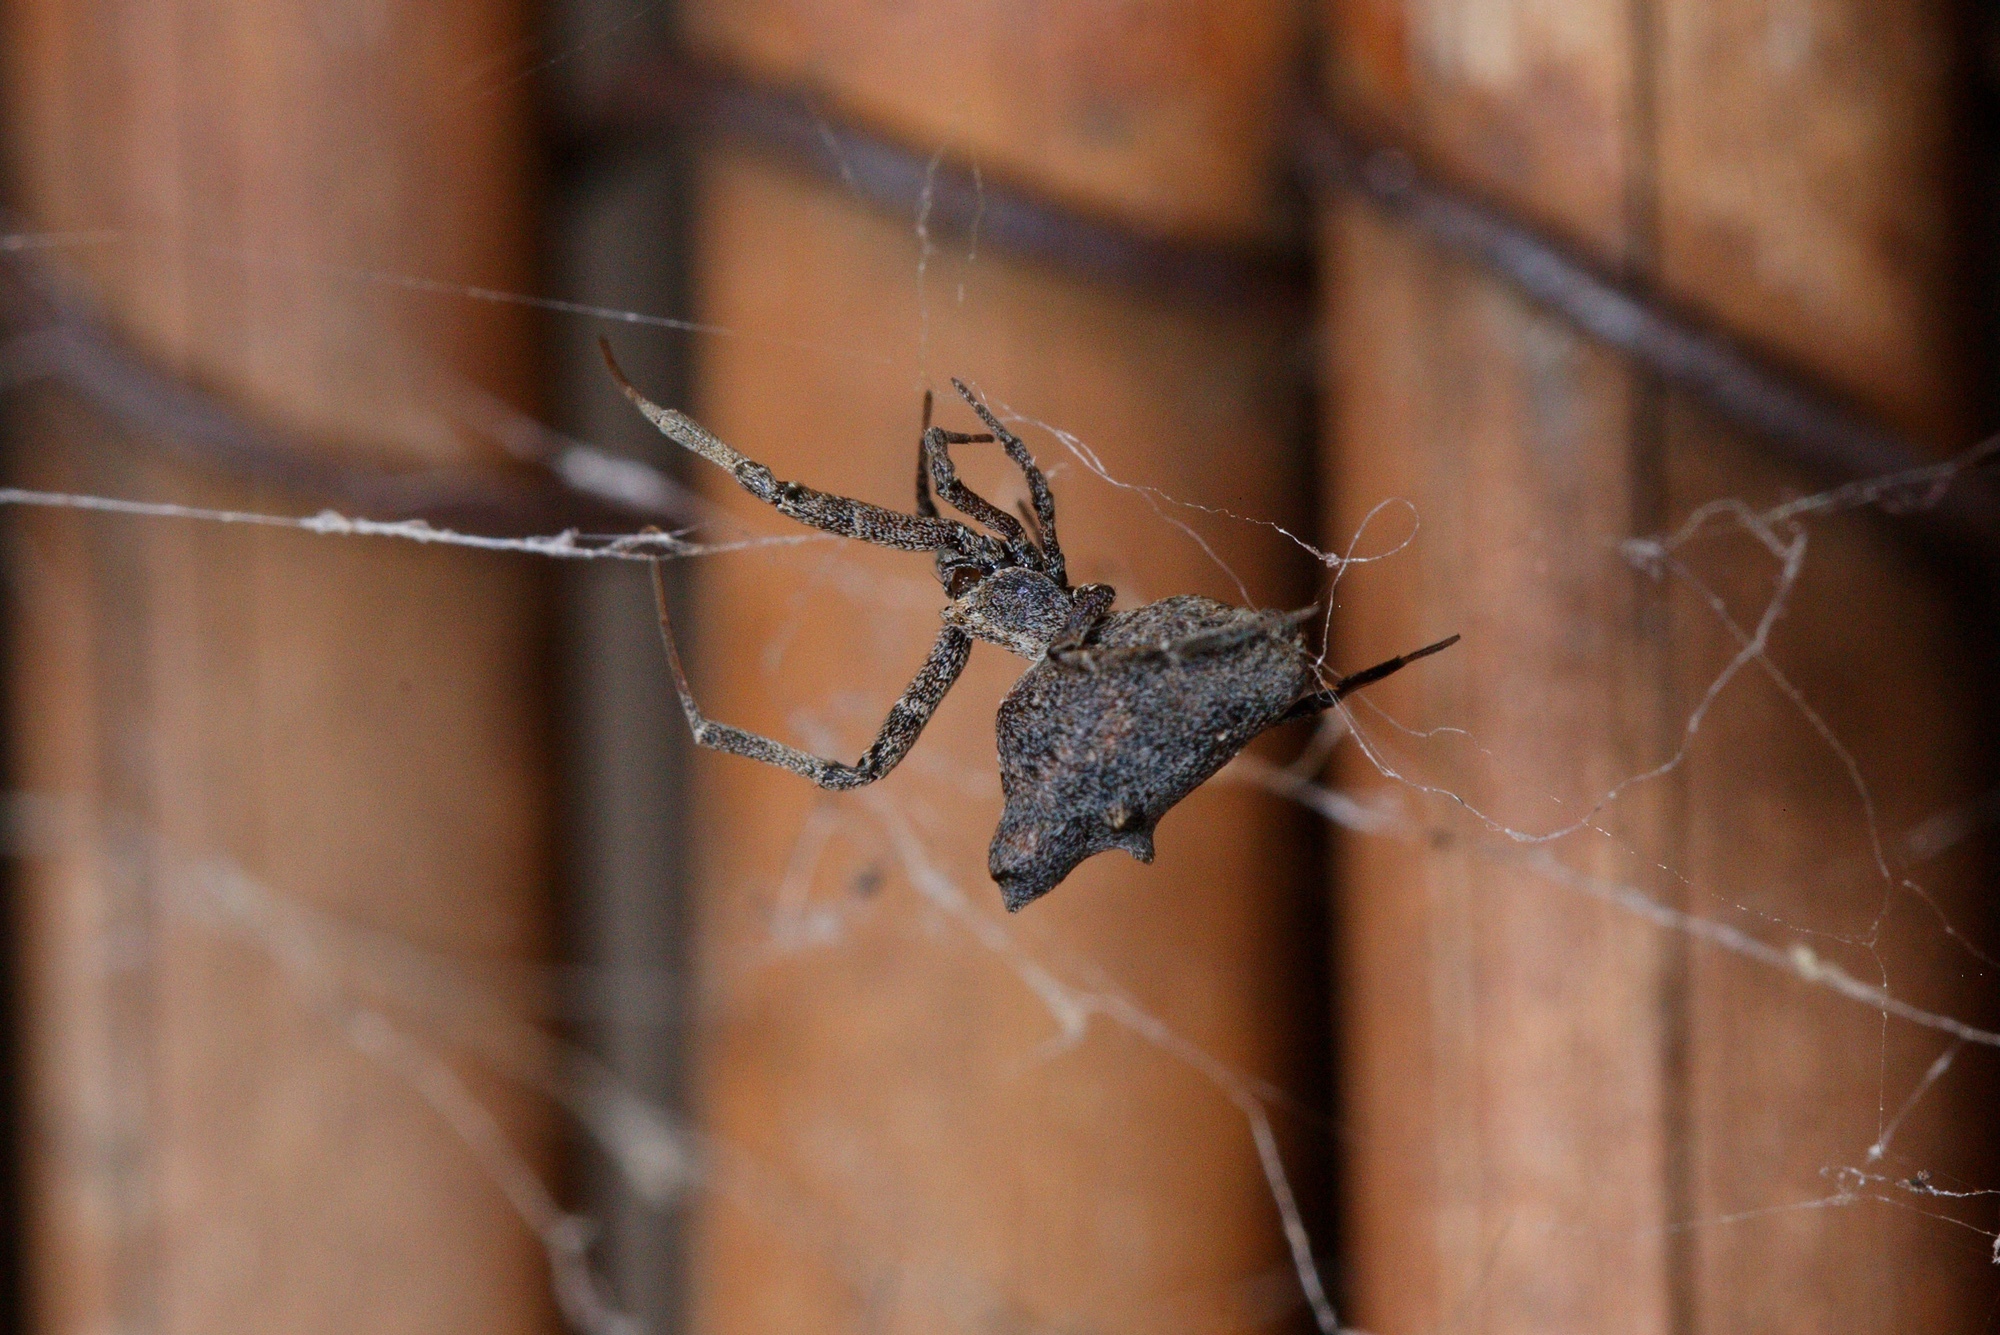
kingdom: Animalia
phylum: Arthropoda
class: Arachnida
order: Araneae
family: Uloboridae
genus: Philoponella
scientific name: Philoponella congregabilis
